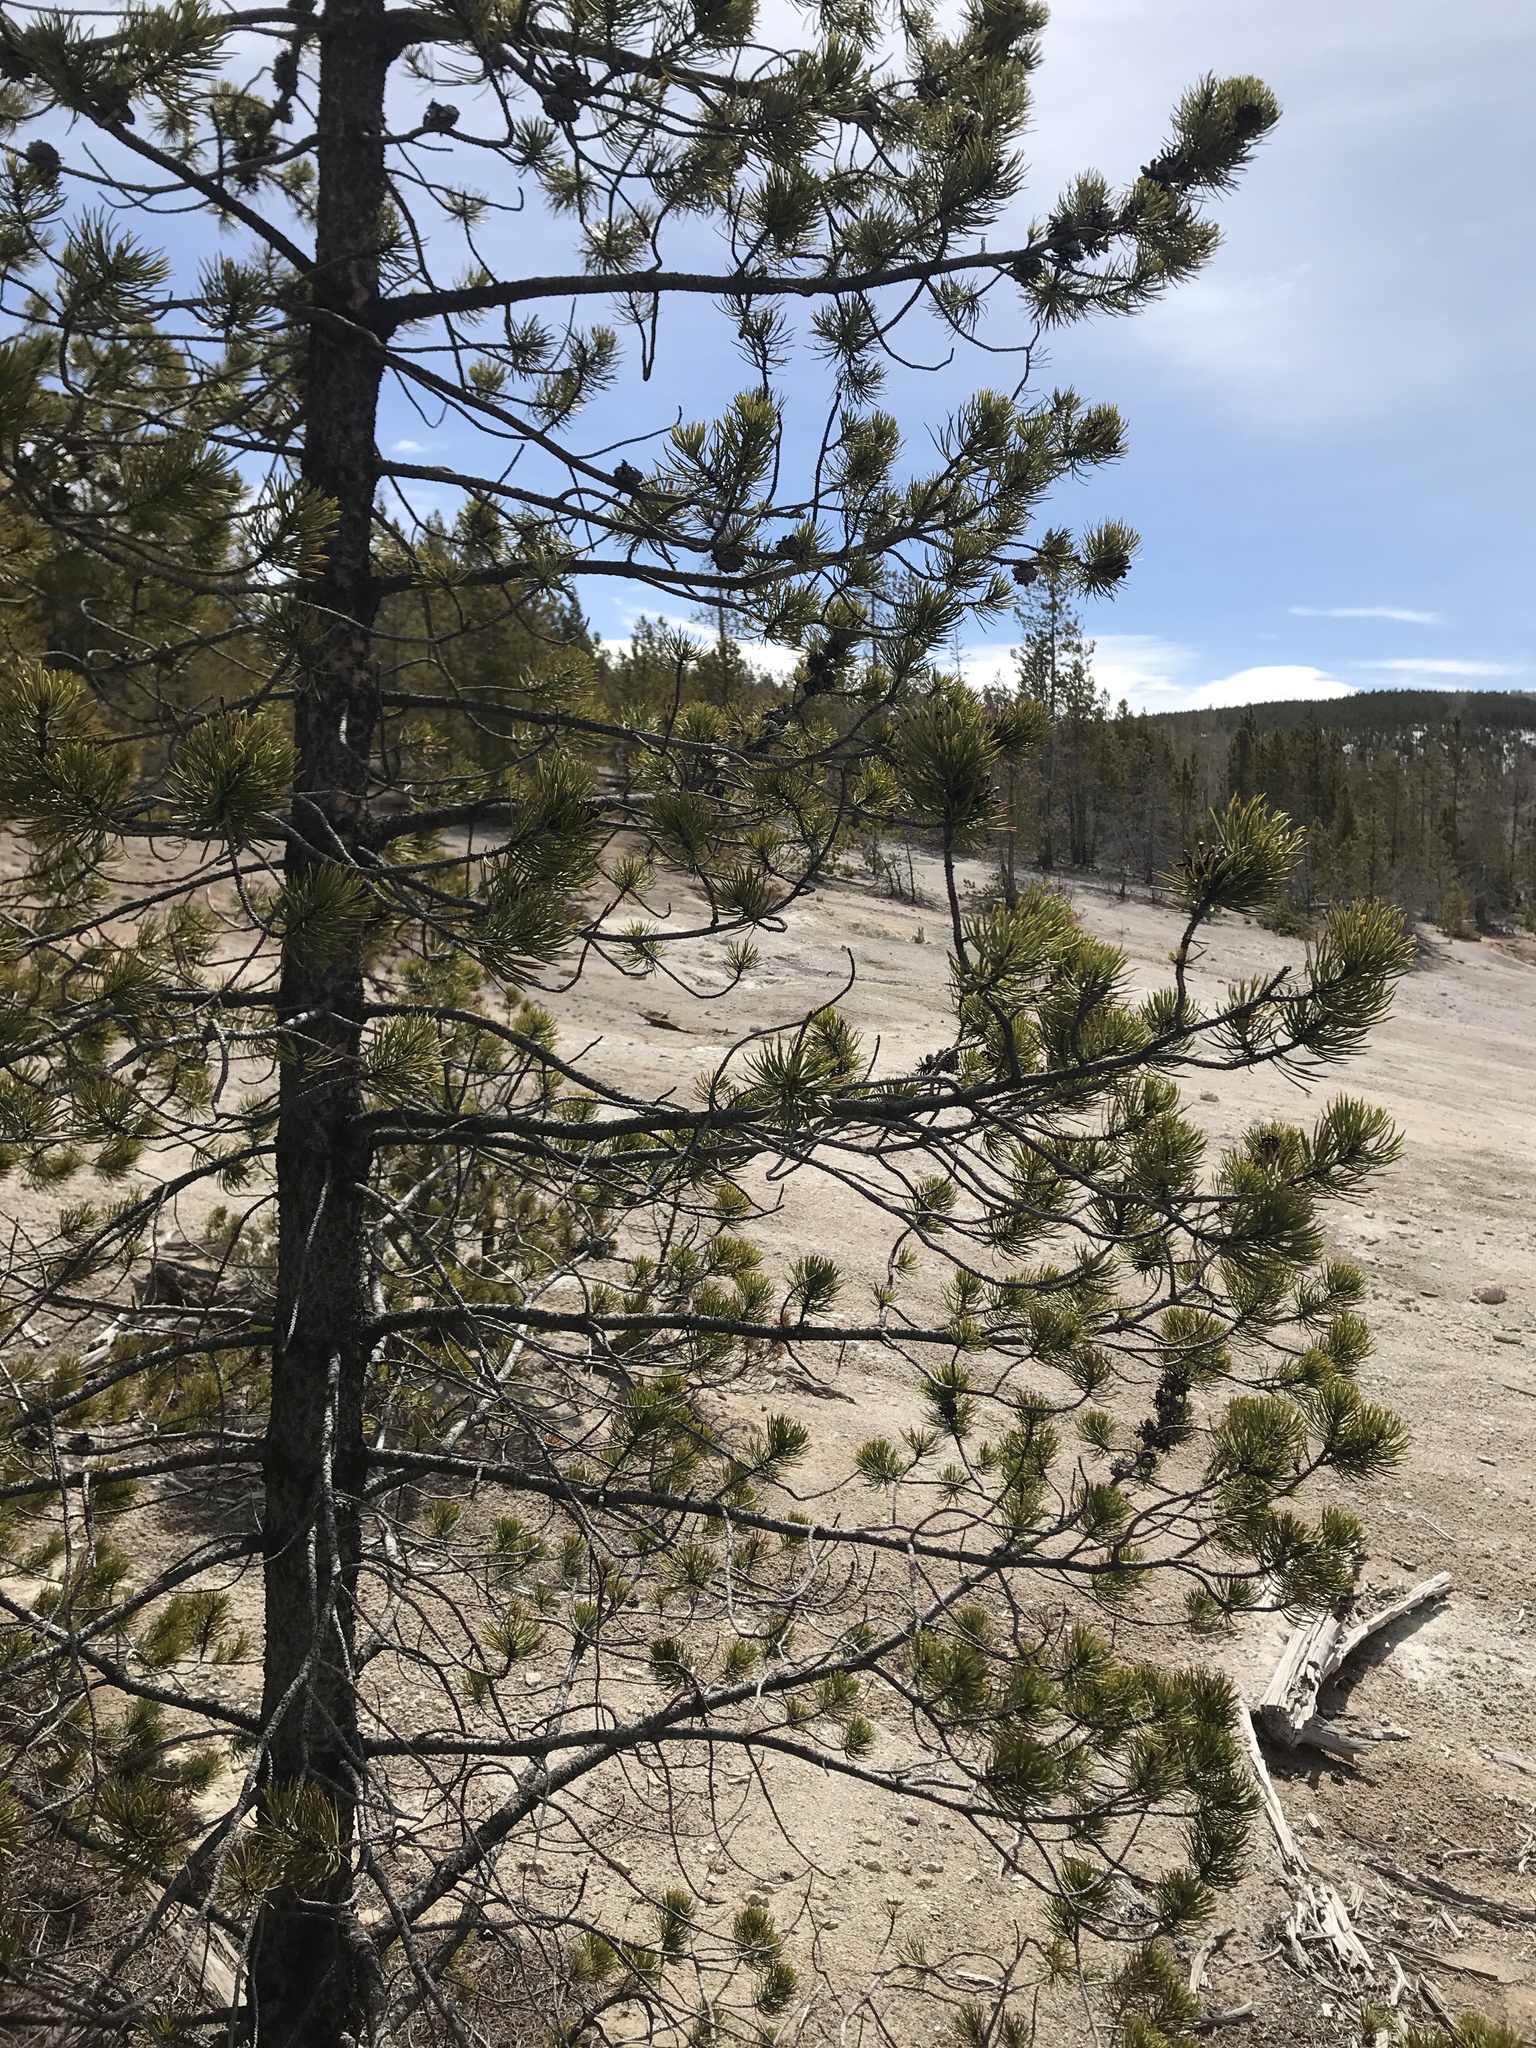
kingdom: Plantae
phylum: Tracheophyta
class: Pinopsida
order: Pinales
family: Pinaceae
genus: Pinus
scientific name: Pinus contorta
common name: Lodgepole pine
